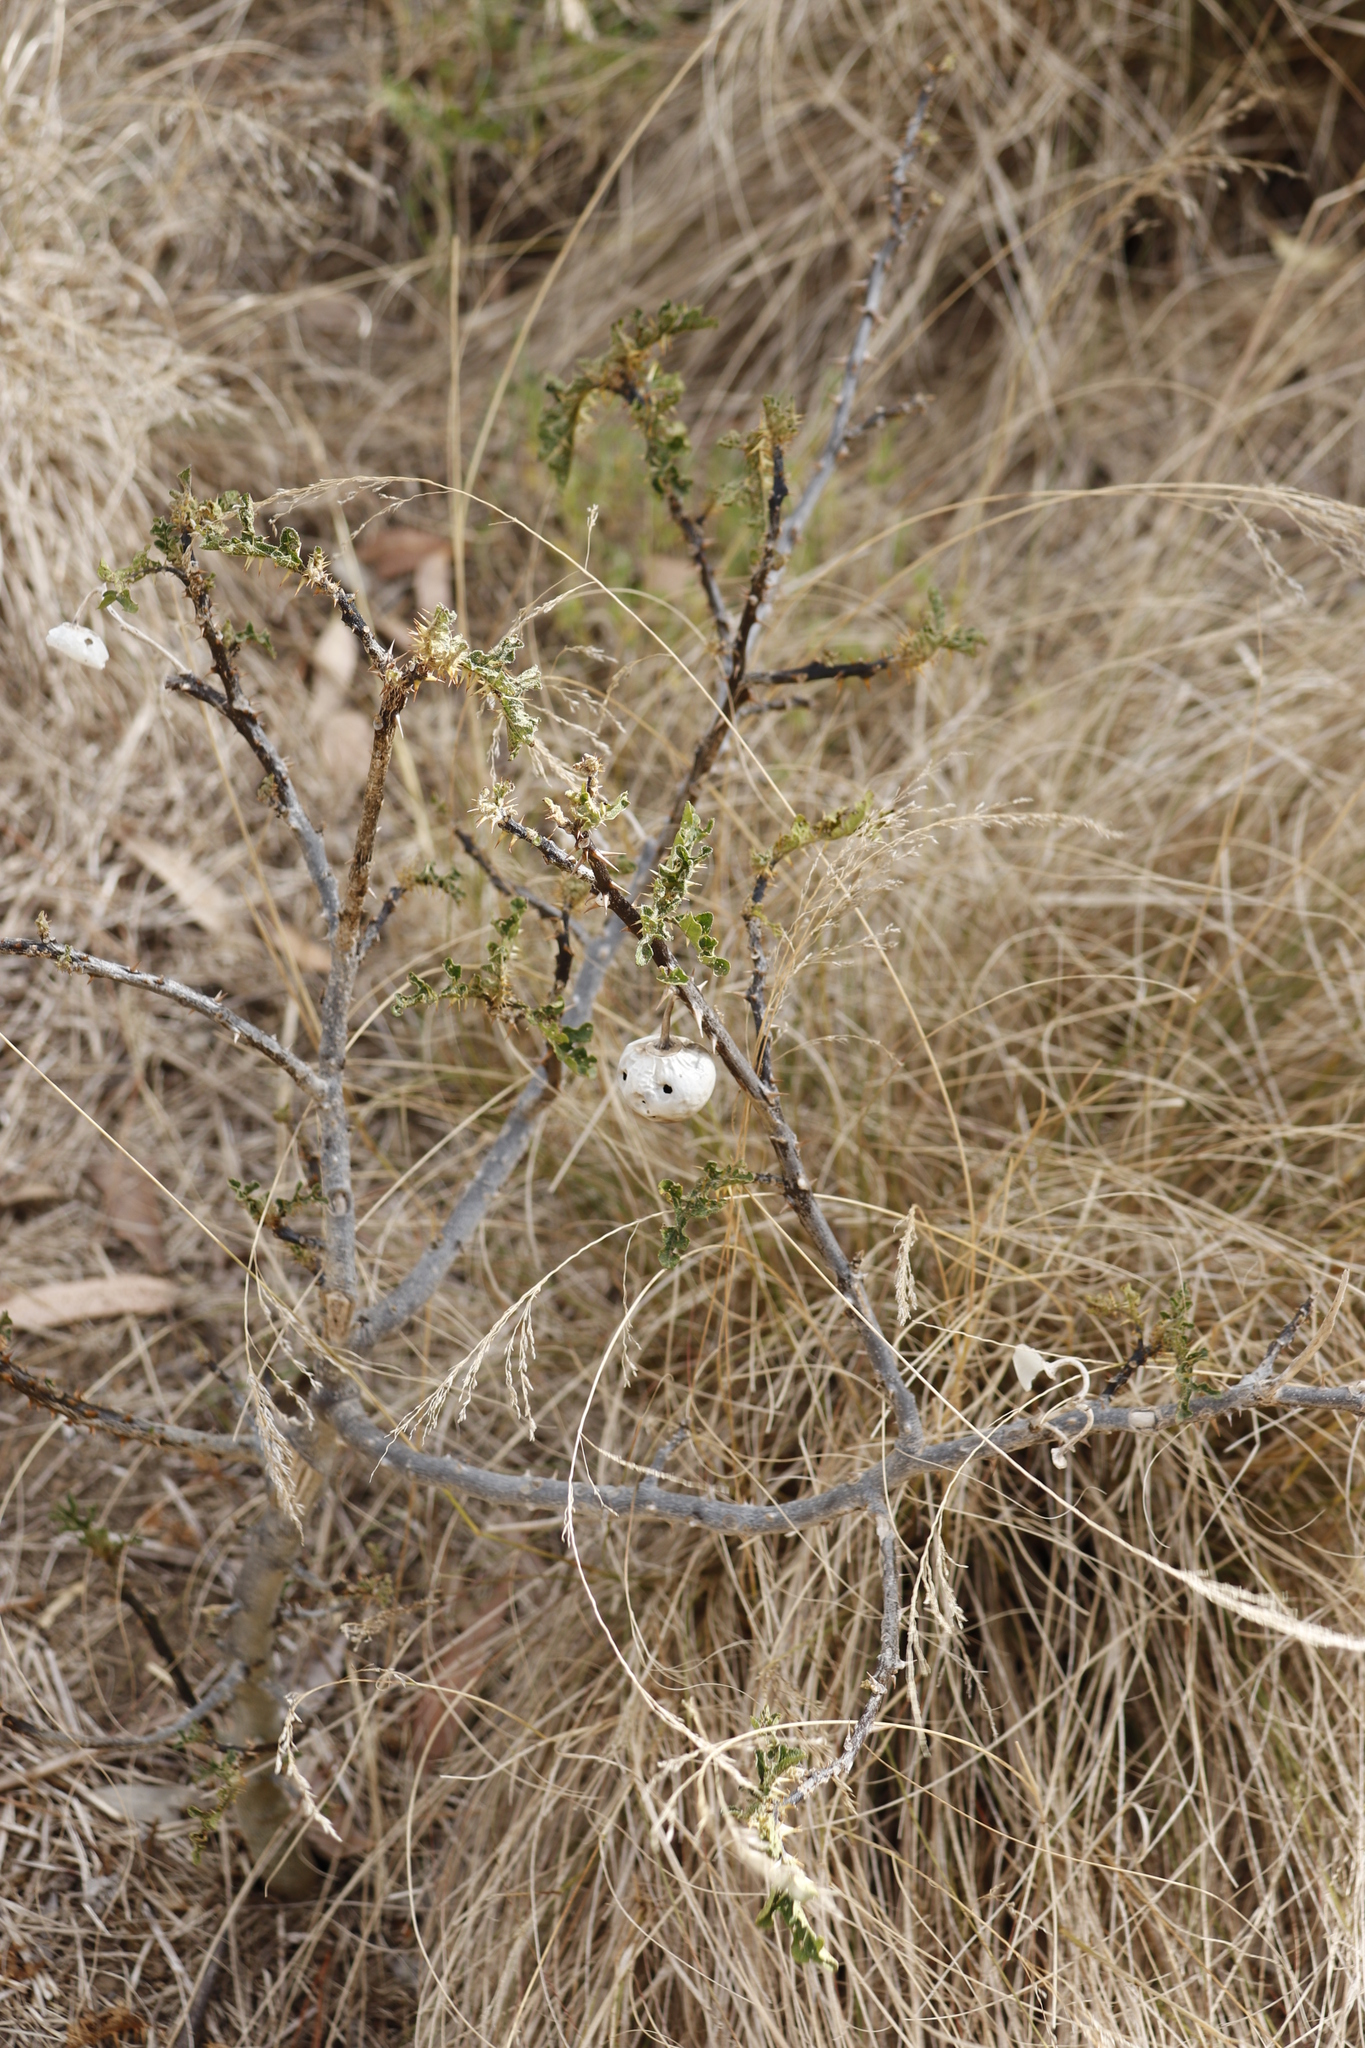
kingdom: Plantae
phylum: Tracheophyta
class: Magnoliopsida
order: Solanales
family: Solanaceae
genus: Solanum
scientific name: Solanum linnaeanum
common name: Nightshade
